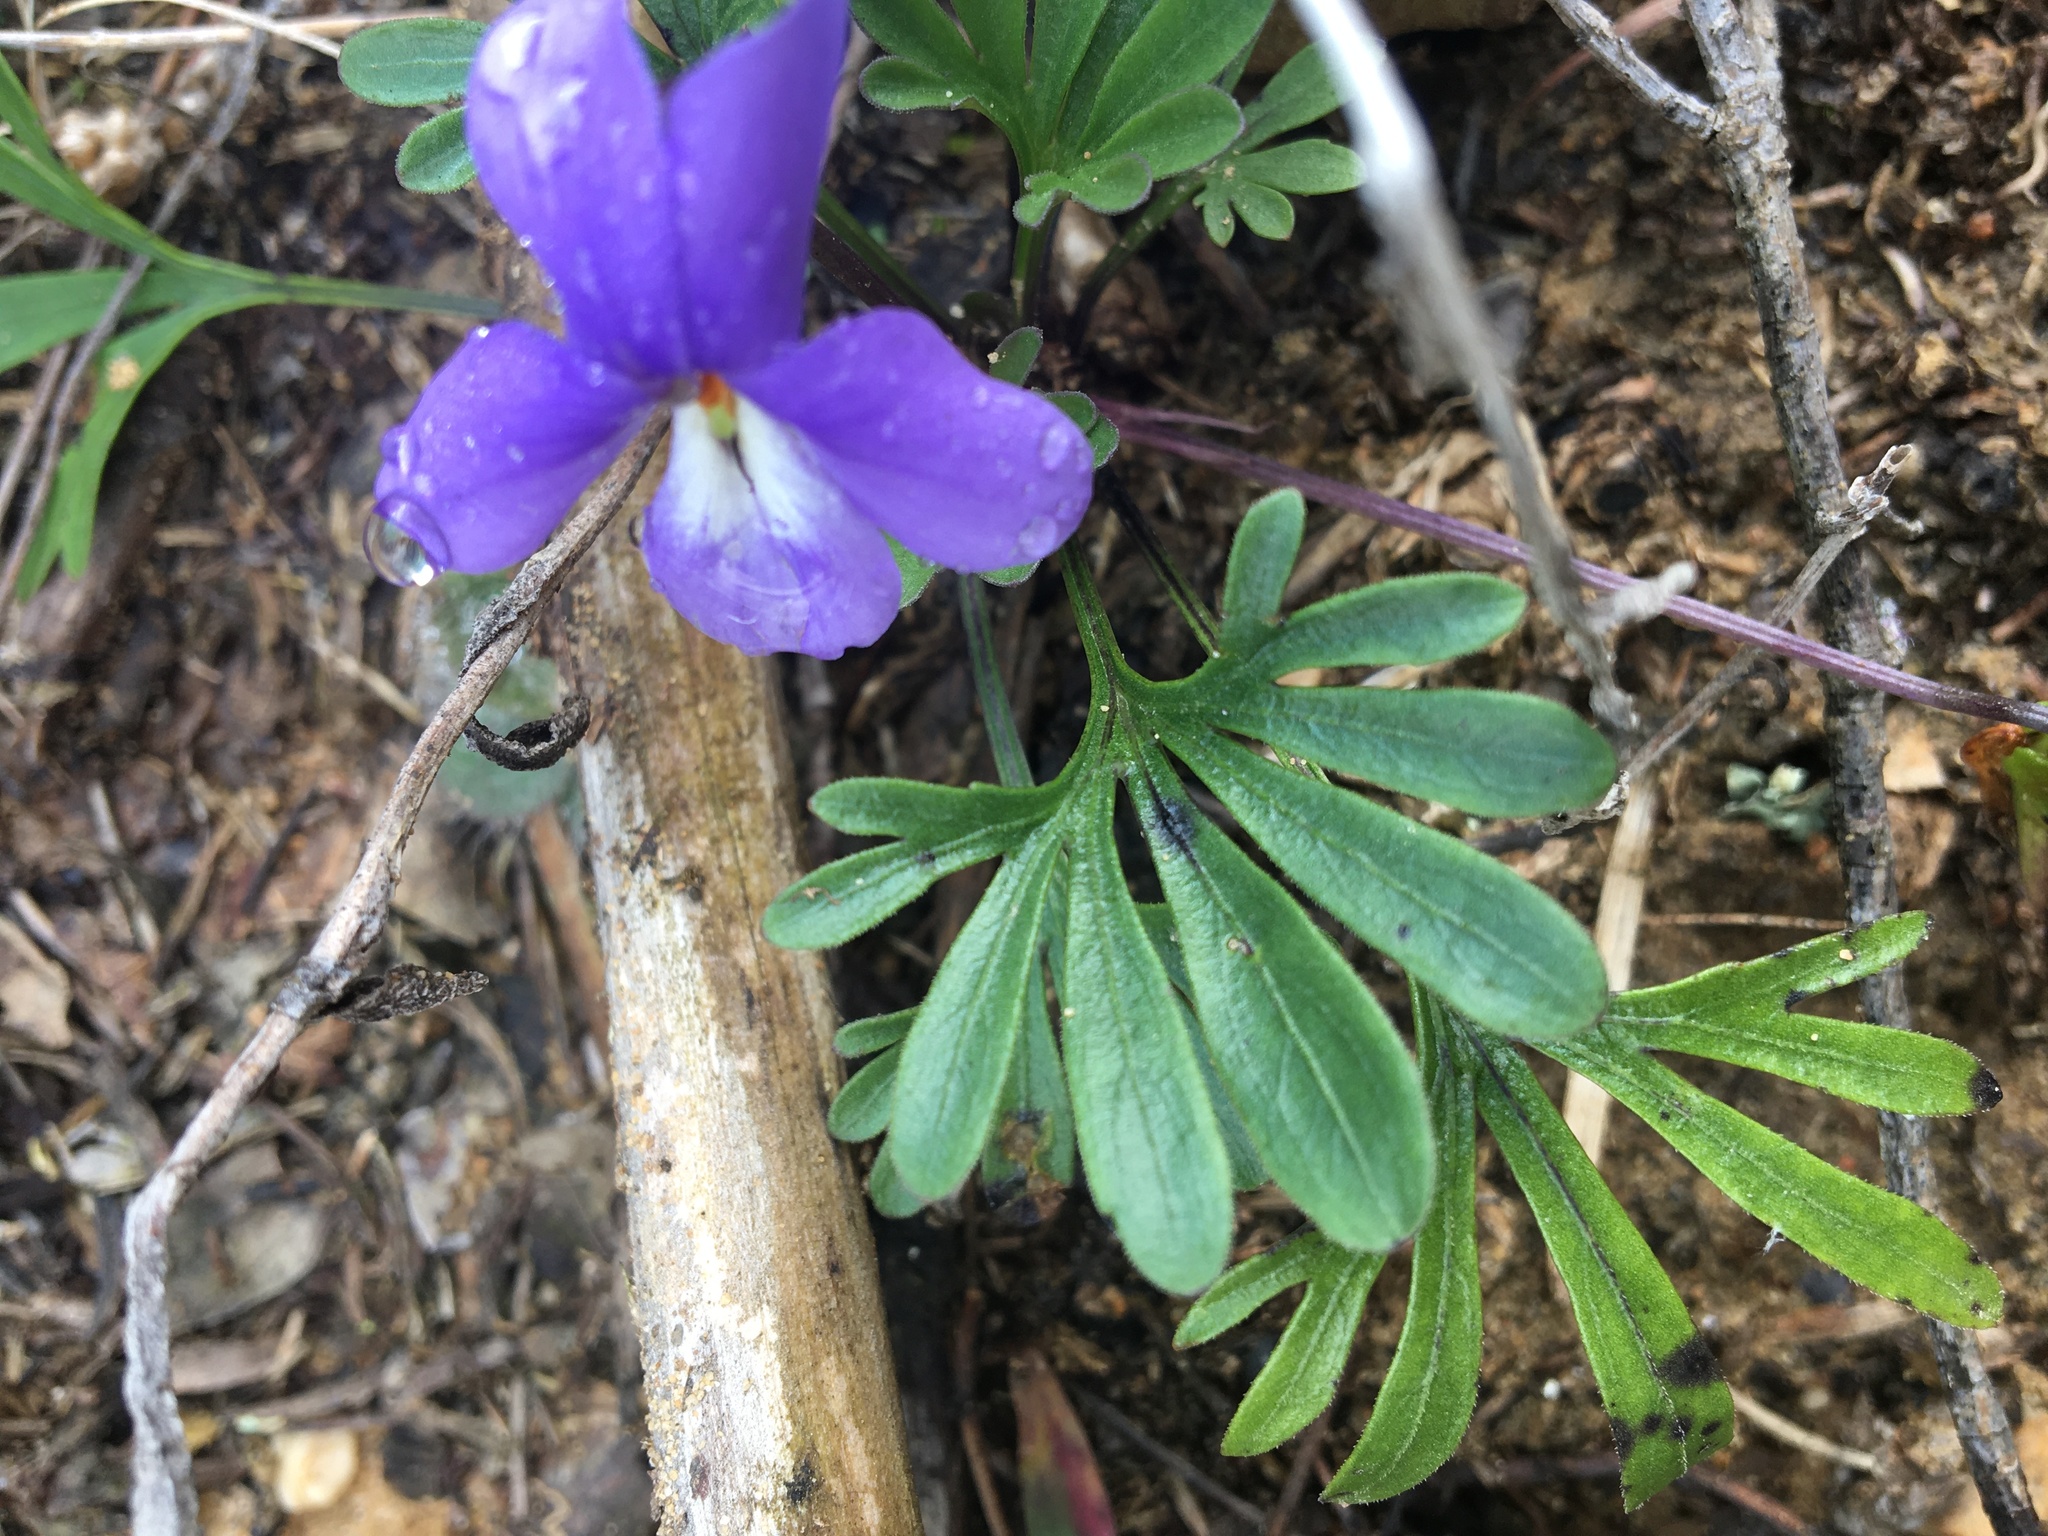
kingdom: Plantae
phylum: Tracheophyta
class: Magnoliopsida
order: Malpighiales
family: Violaceae
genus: Viola
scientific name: Viola pedata
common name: Pansy violet
